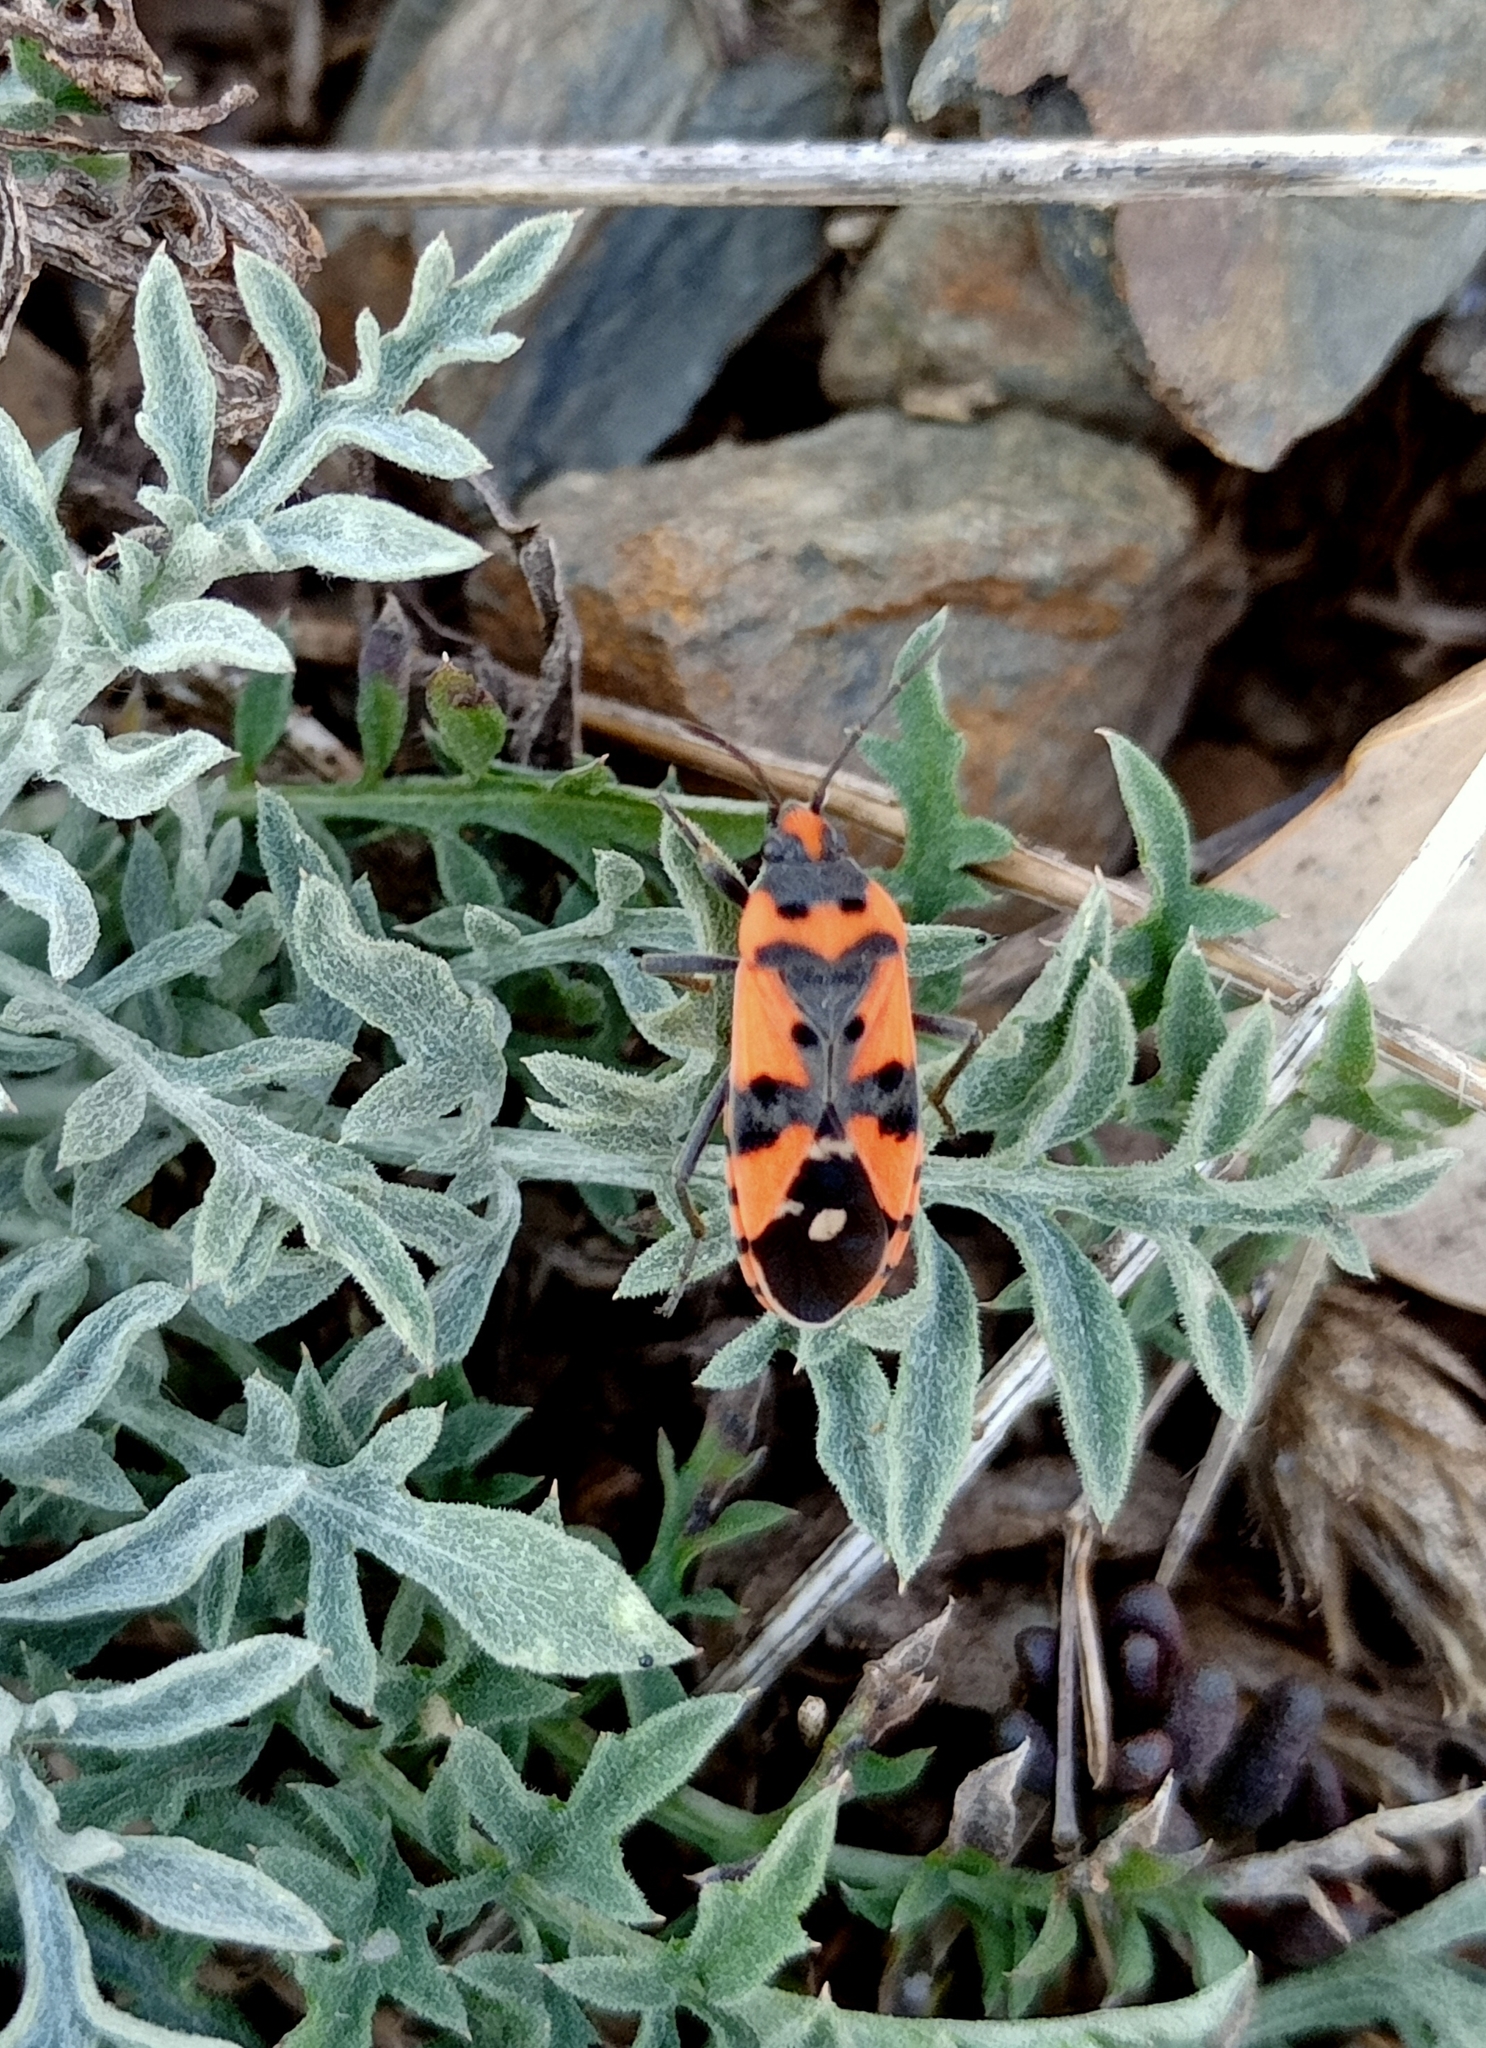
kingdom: Animalia
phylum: Arthropoda
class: Insecta
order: Hemiptera
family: Lygaeidae
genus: Lygaeus
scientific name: Lygaeus equestris
